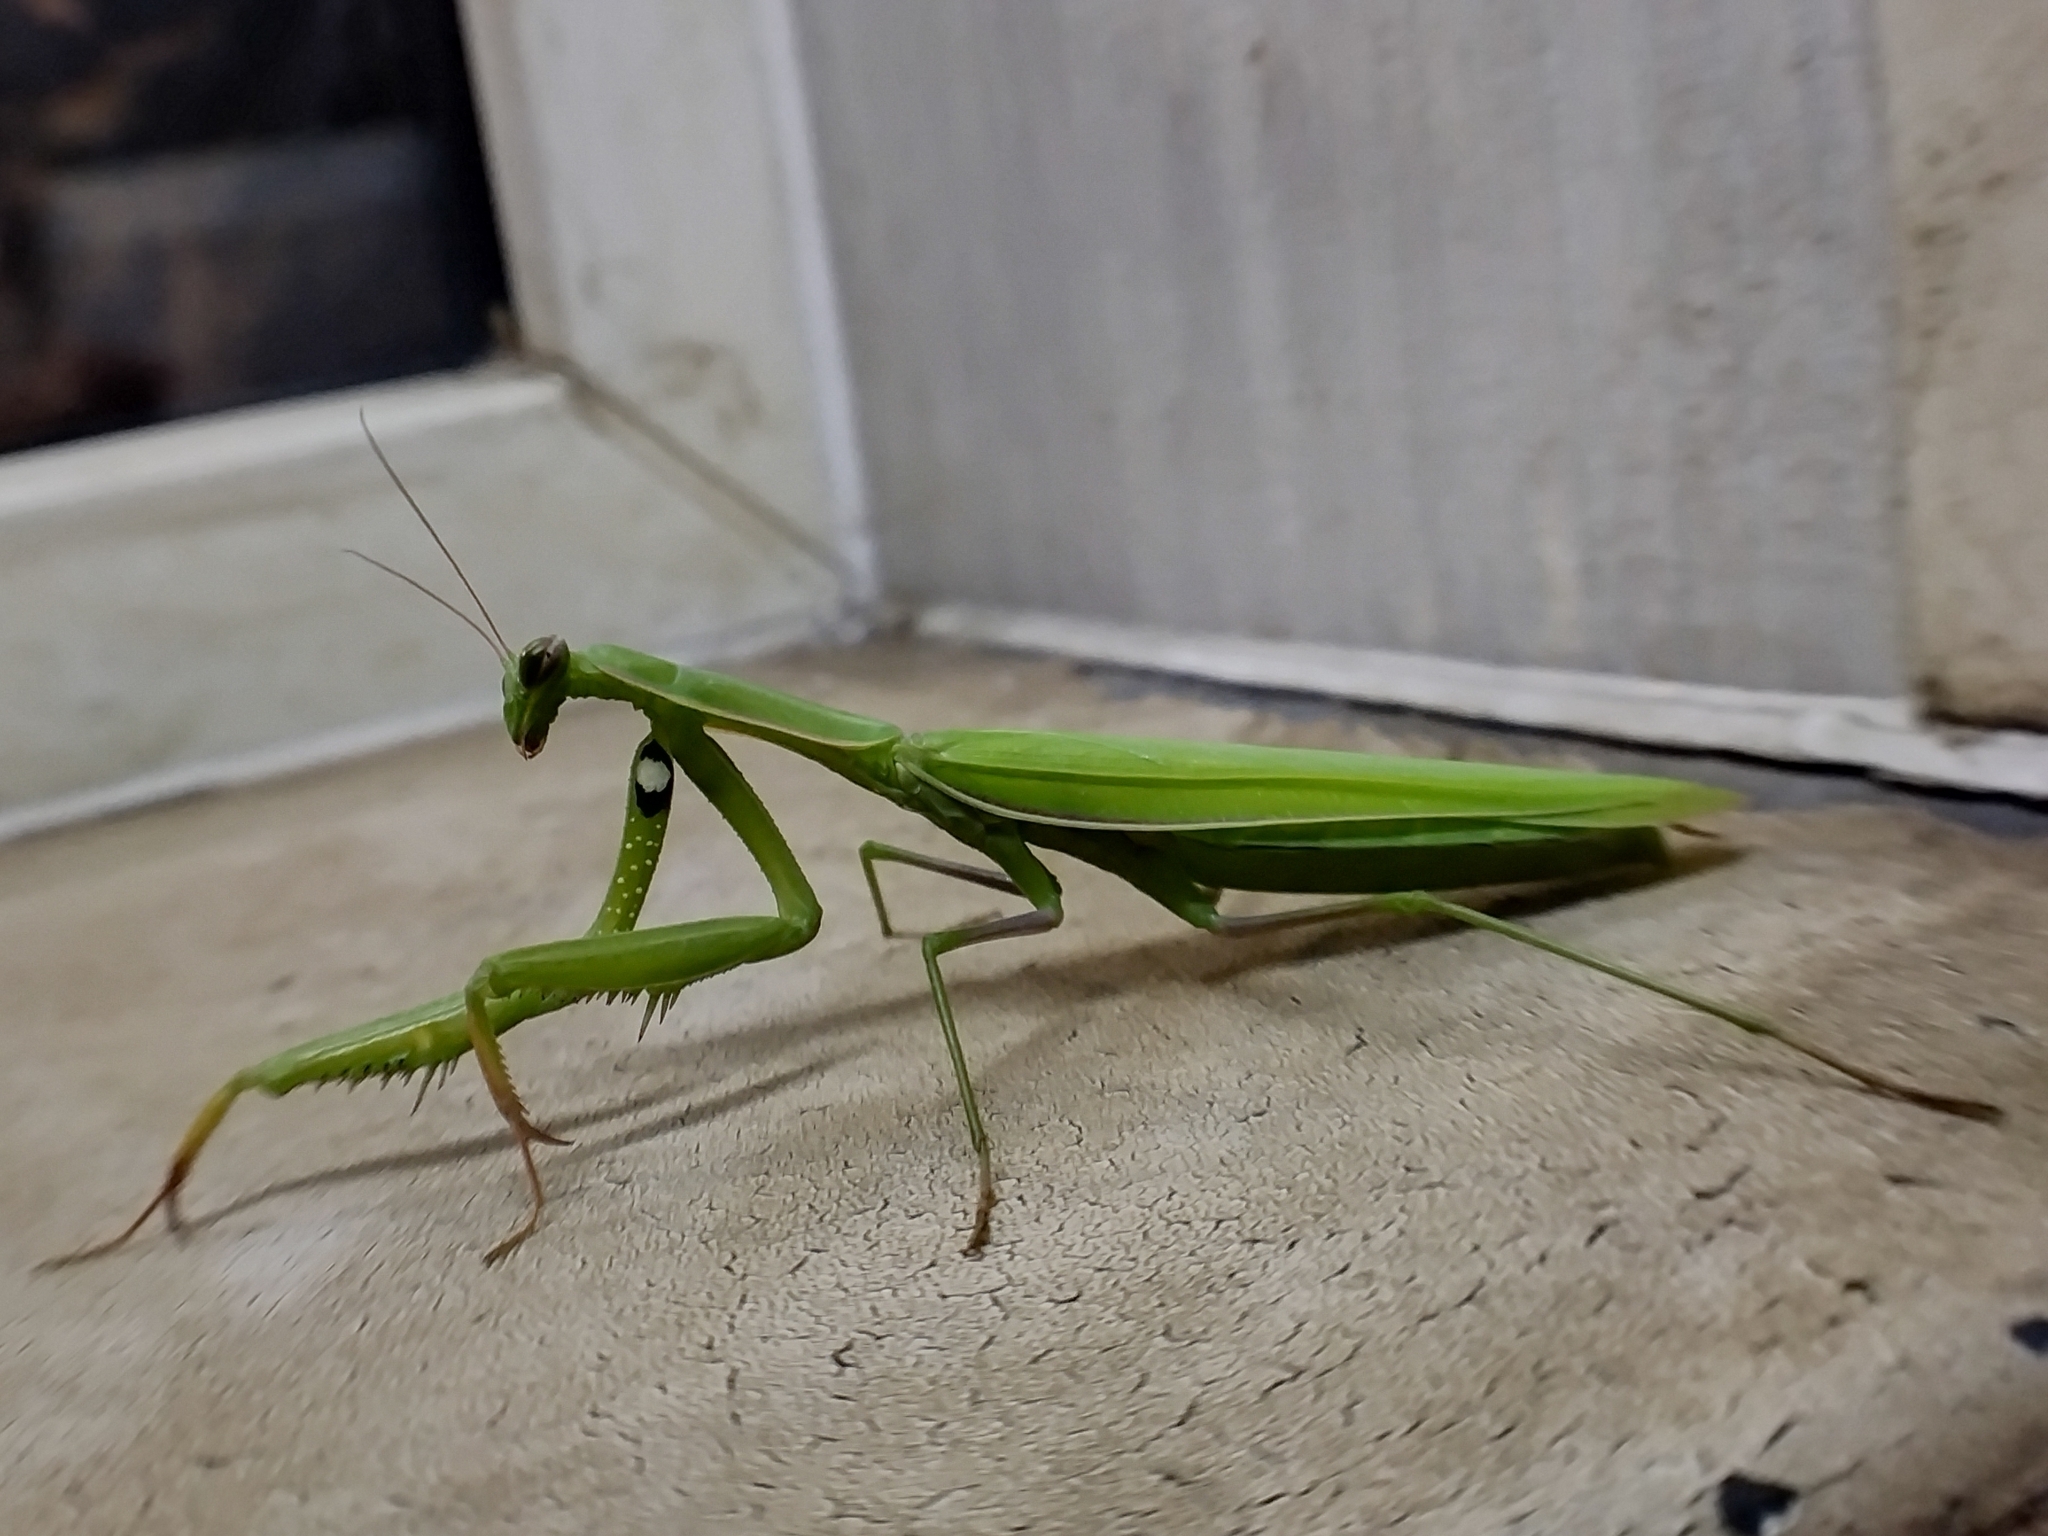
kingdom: Animalia
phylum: Arthropoda
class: Insecta
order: Mantodea
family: Mantidae
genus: Mantis
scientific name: Mantis religiosa
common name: Praying mantis
